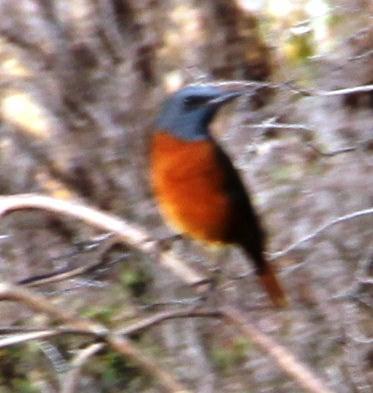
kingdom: Animalia
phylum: Chordata
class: Aves
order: Passeriformes
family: Muscicapidae
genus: Monticola
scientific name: Monticola rupestris
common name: Cape rock thrush
